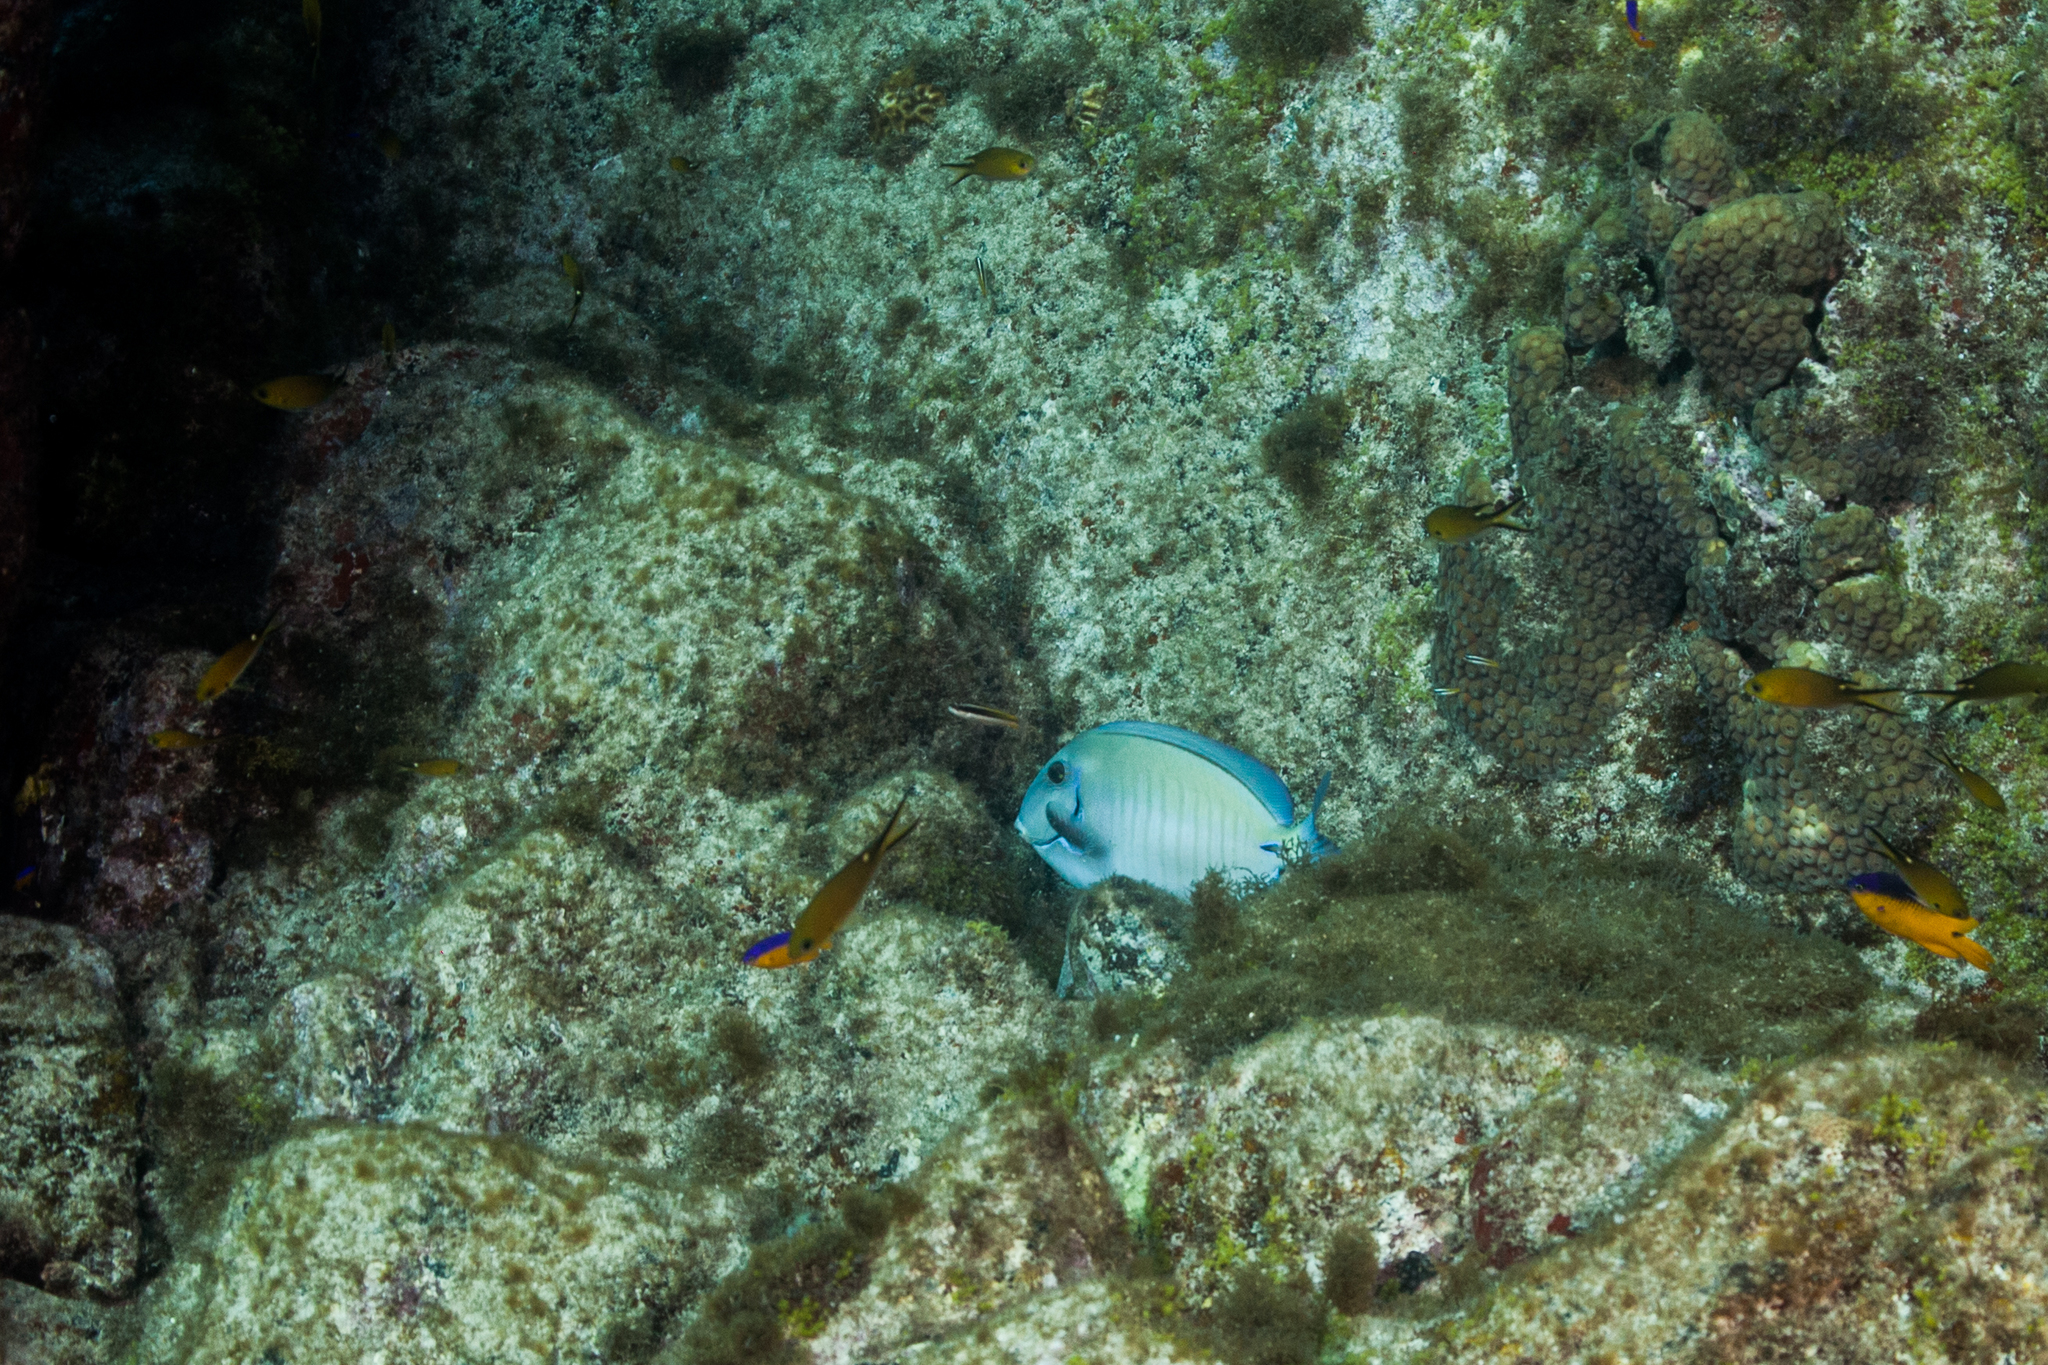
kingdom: Animalia
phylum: Chordata
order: Perciformes
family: Acanthuridae
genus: Acanthurus
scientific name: Acanthurus chirurgus
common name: Doctorfish
